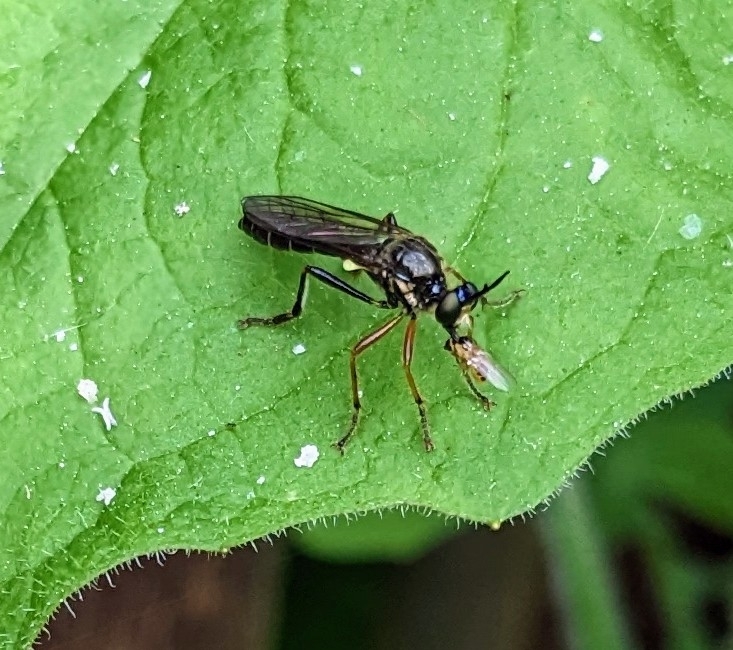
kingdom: Animalia
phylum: Arthropoda
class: Insecta
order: Diptera
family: Asilidae
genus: Dioctria
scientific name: Dioctria rufipes
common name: Common red-legged robberfly
